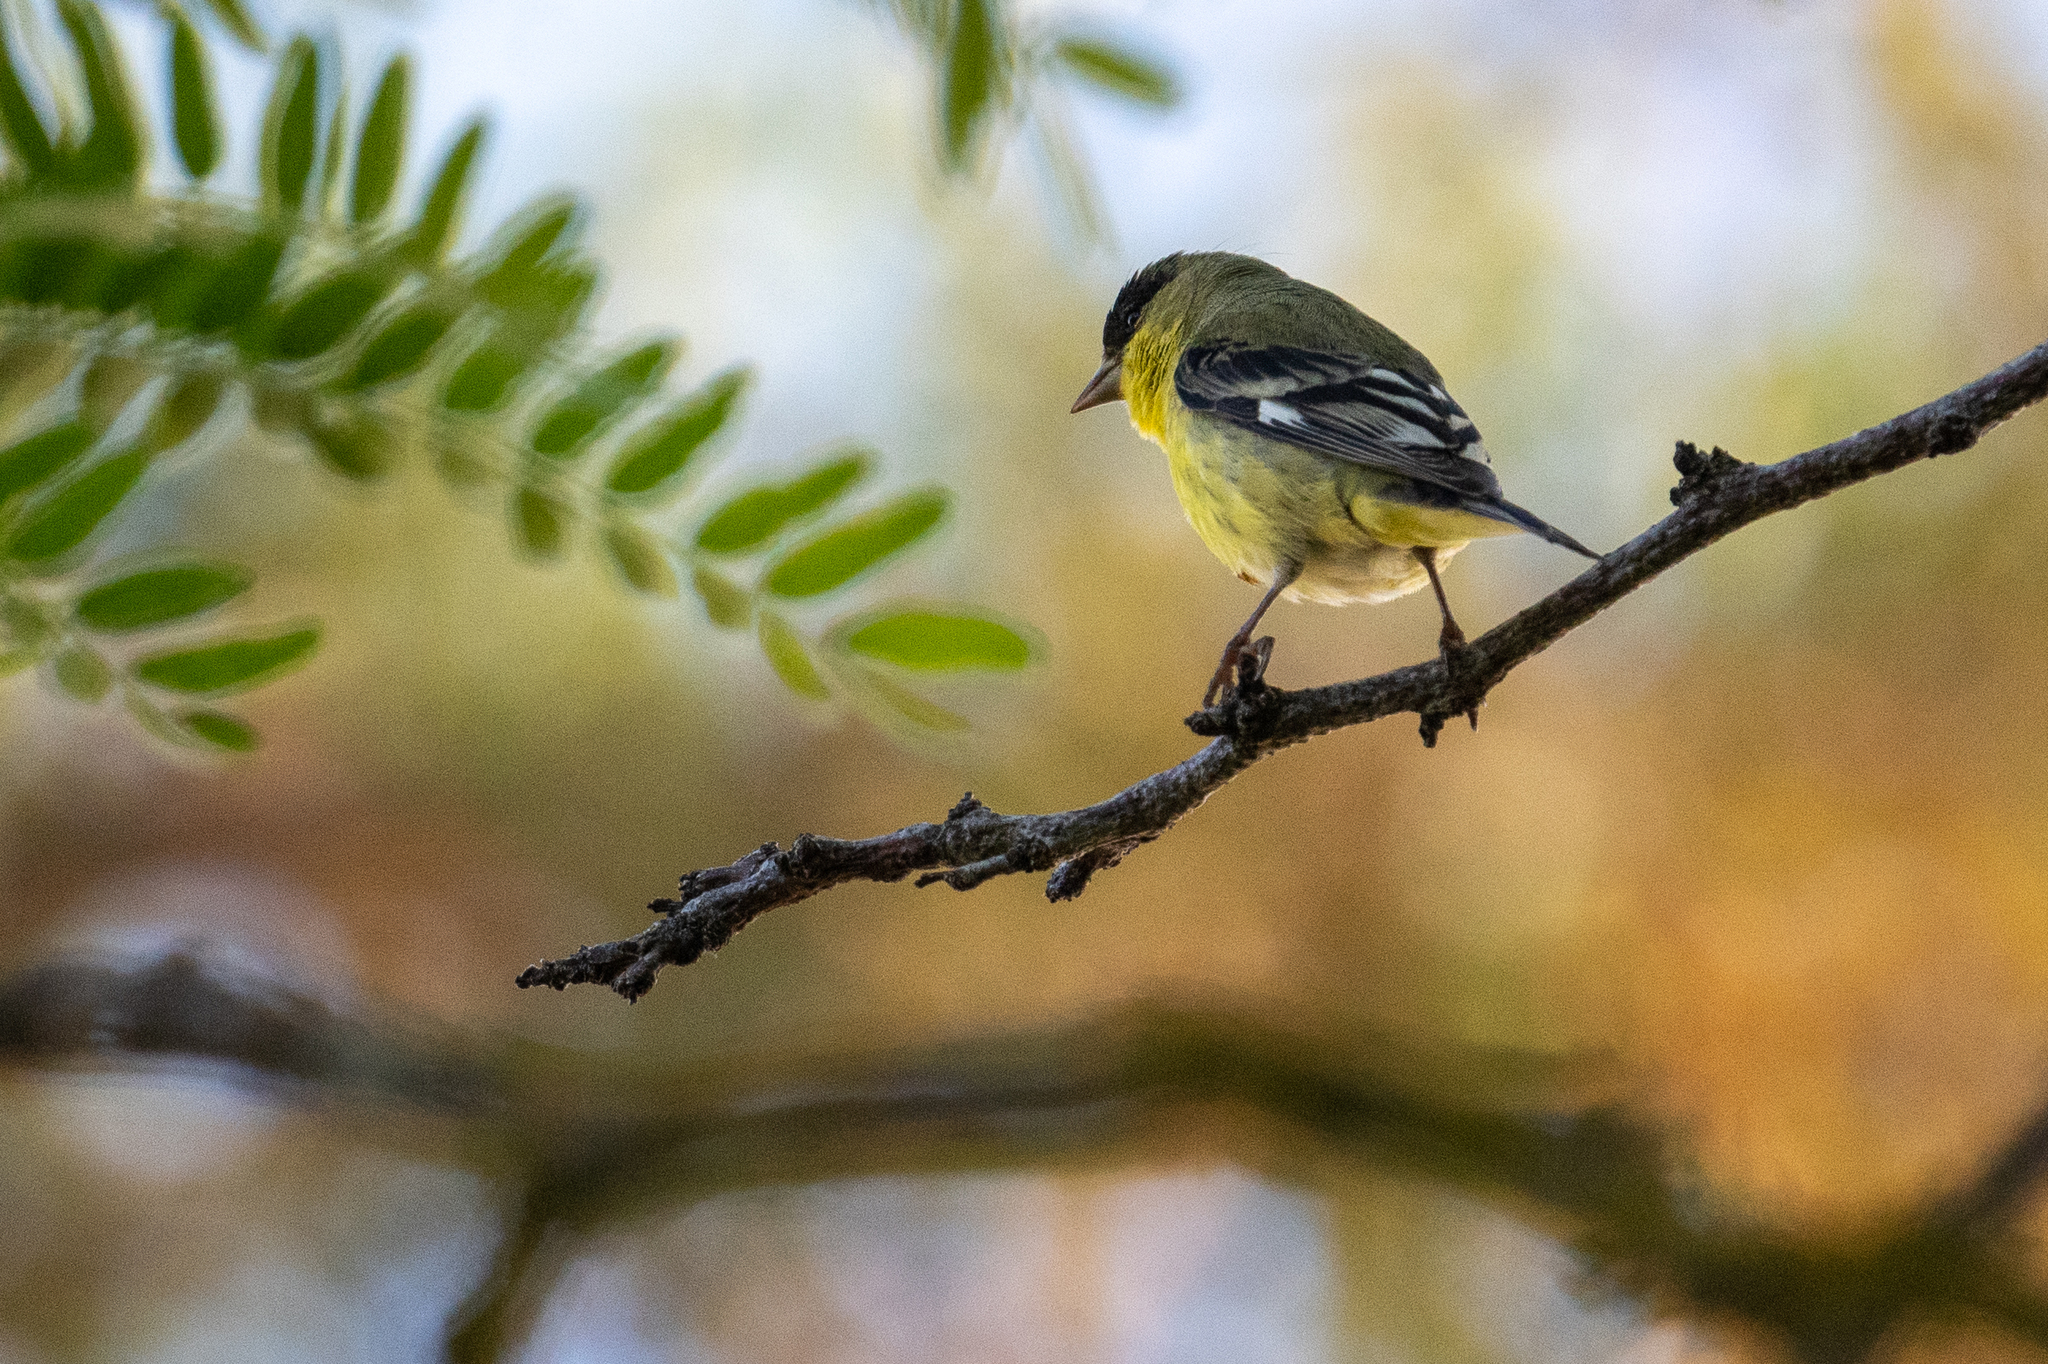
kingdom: Animalia
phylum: Chordata
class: Aves
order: Passeriformes
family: Fringillidae
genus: Spinus
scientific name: Spinus psaltria
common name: Lesser goldfinch
